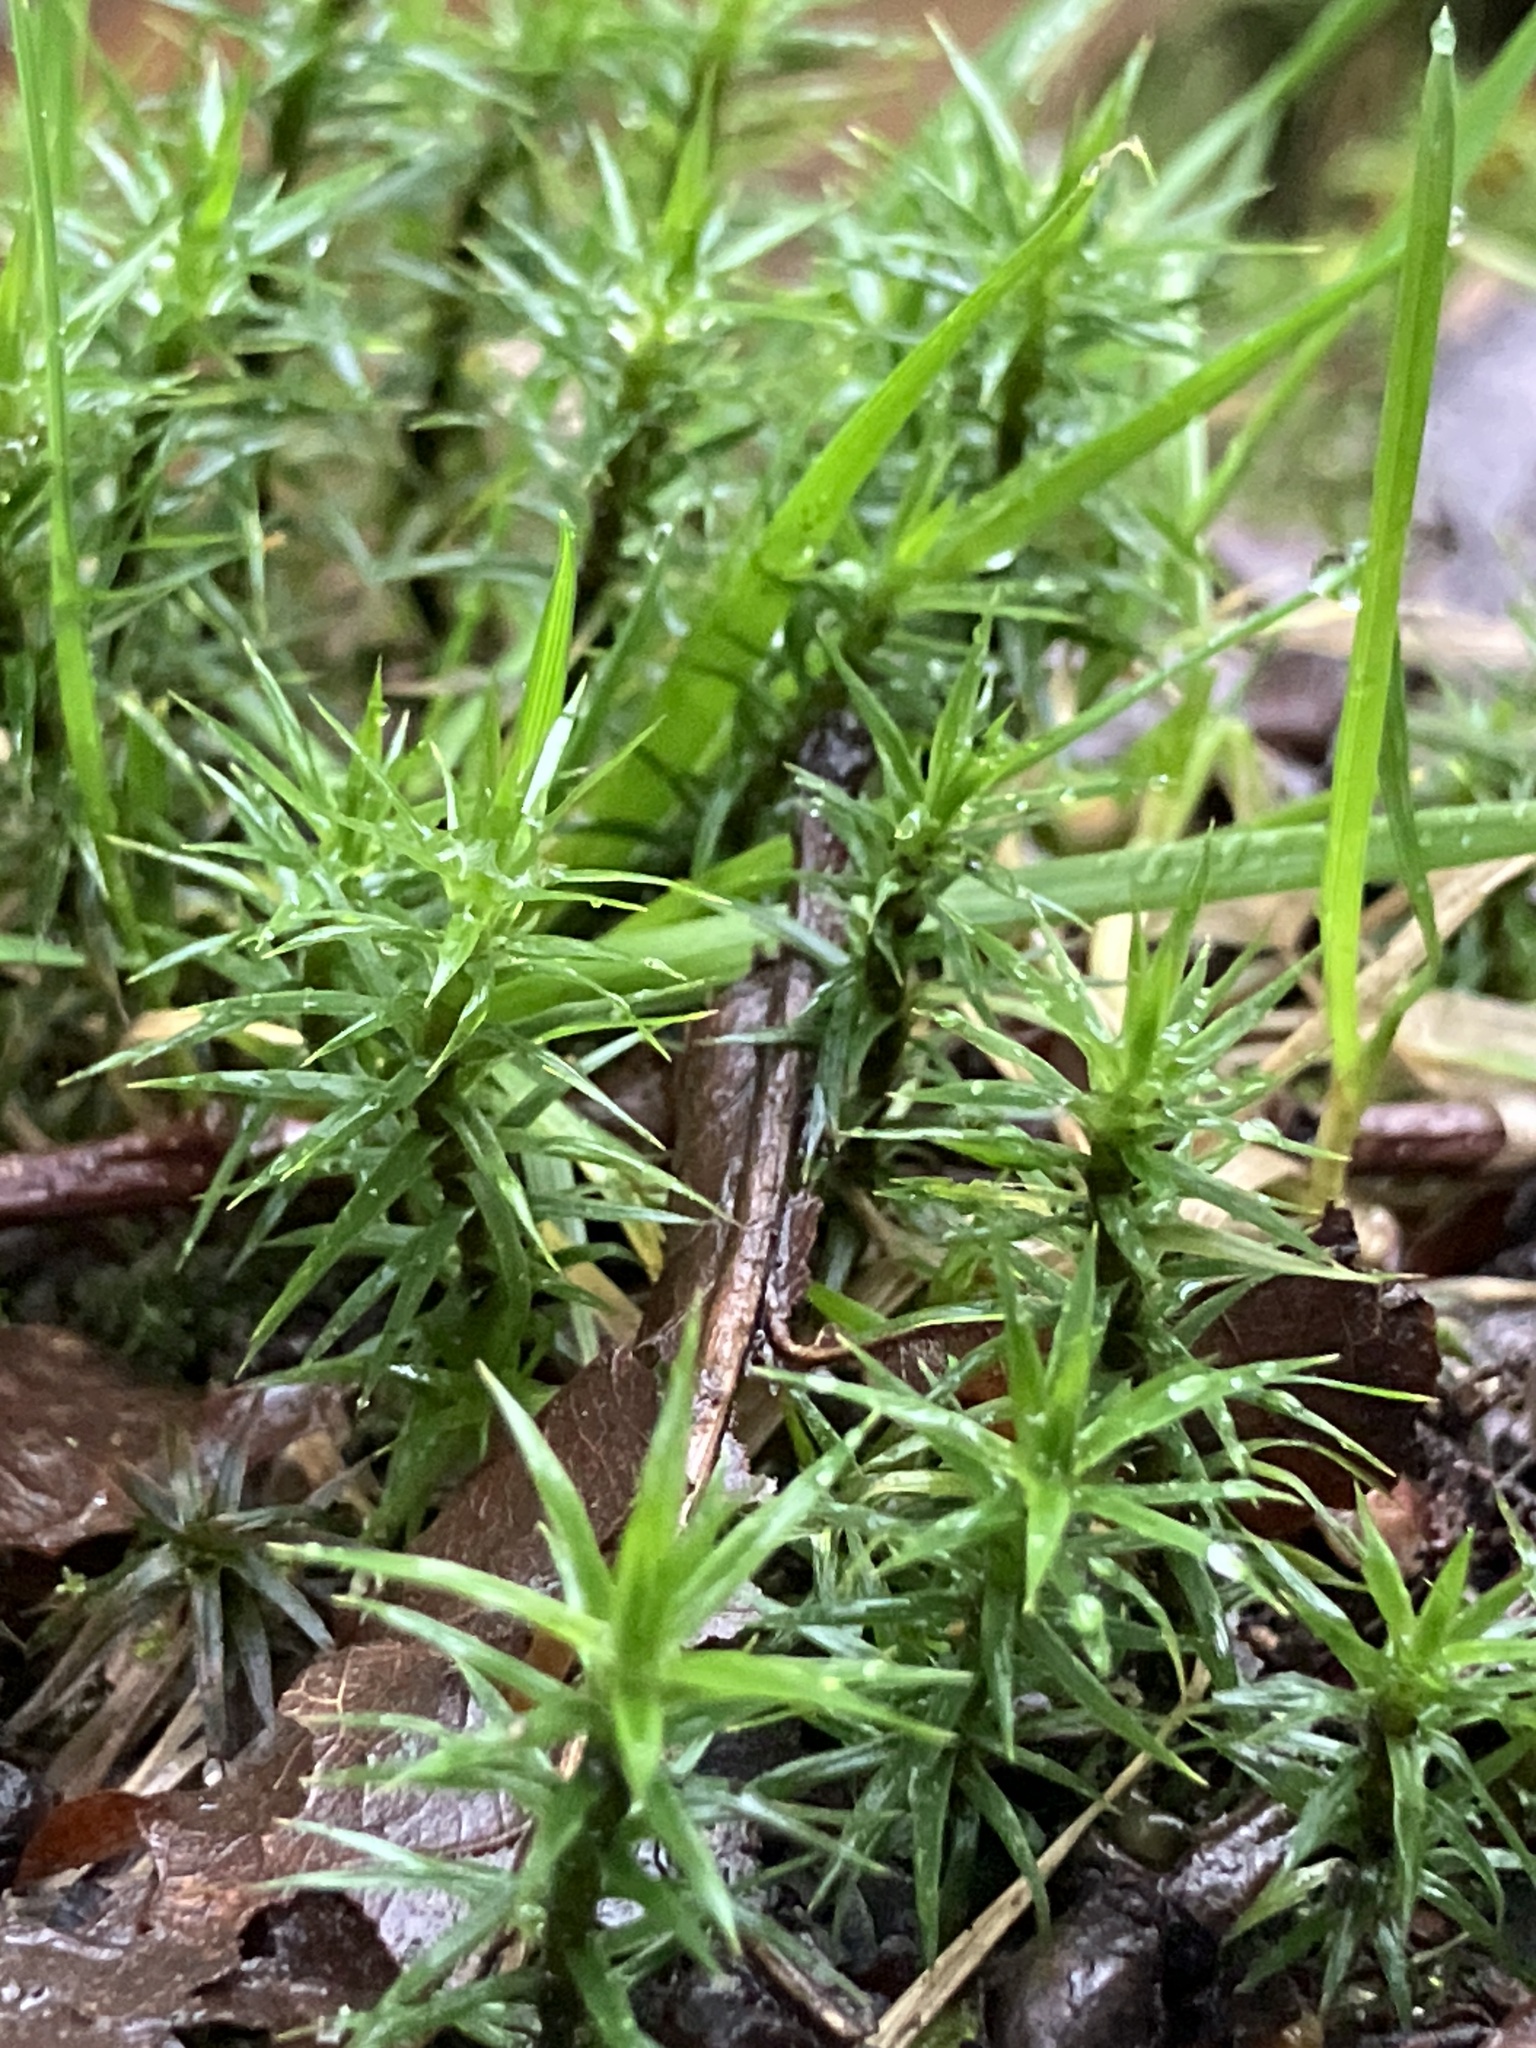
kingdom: Plantae
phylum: Bryophyta
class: Polytrichopsida
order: Polytrichales
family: Polytrichaceae
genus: Polytrichum
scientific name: Polytrichum formosum
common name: Bank haircap moss
